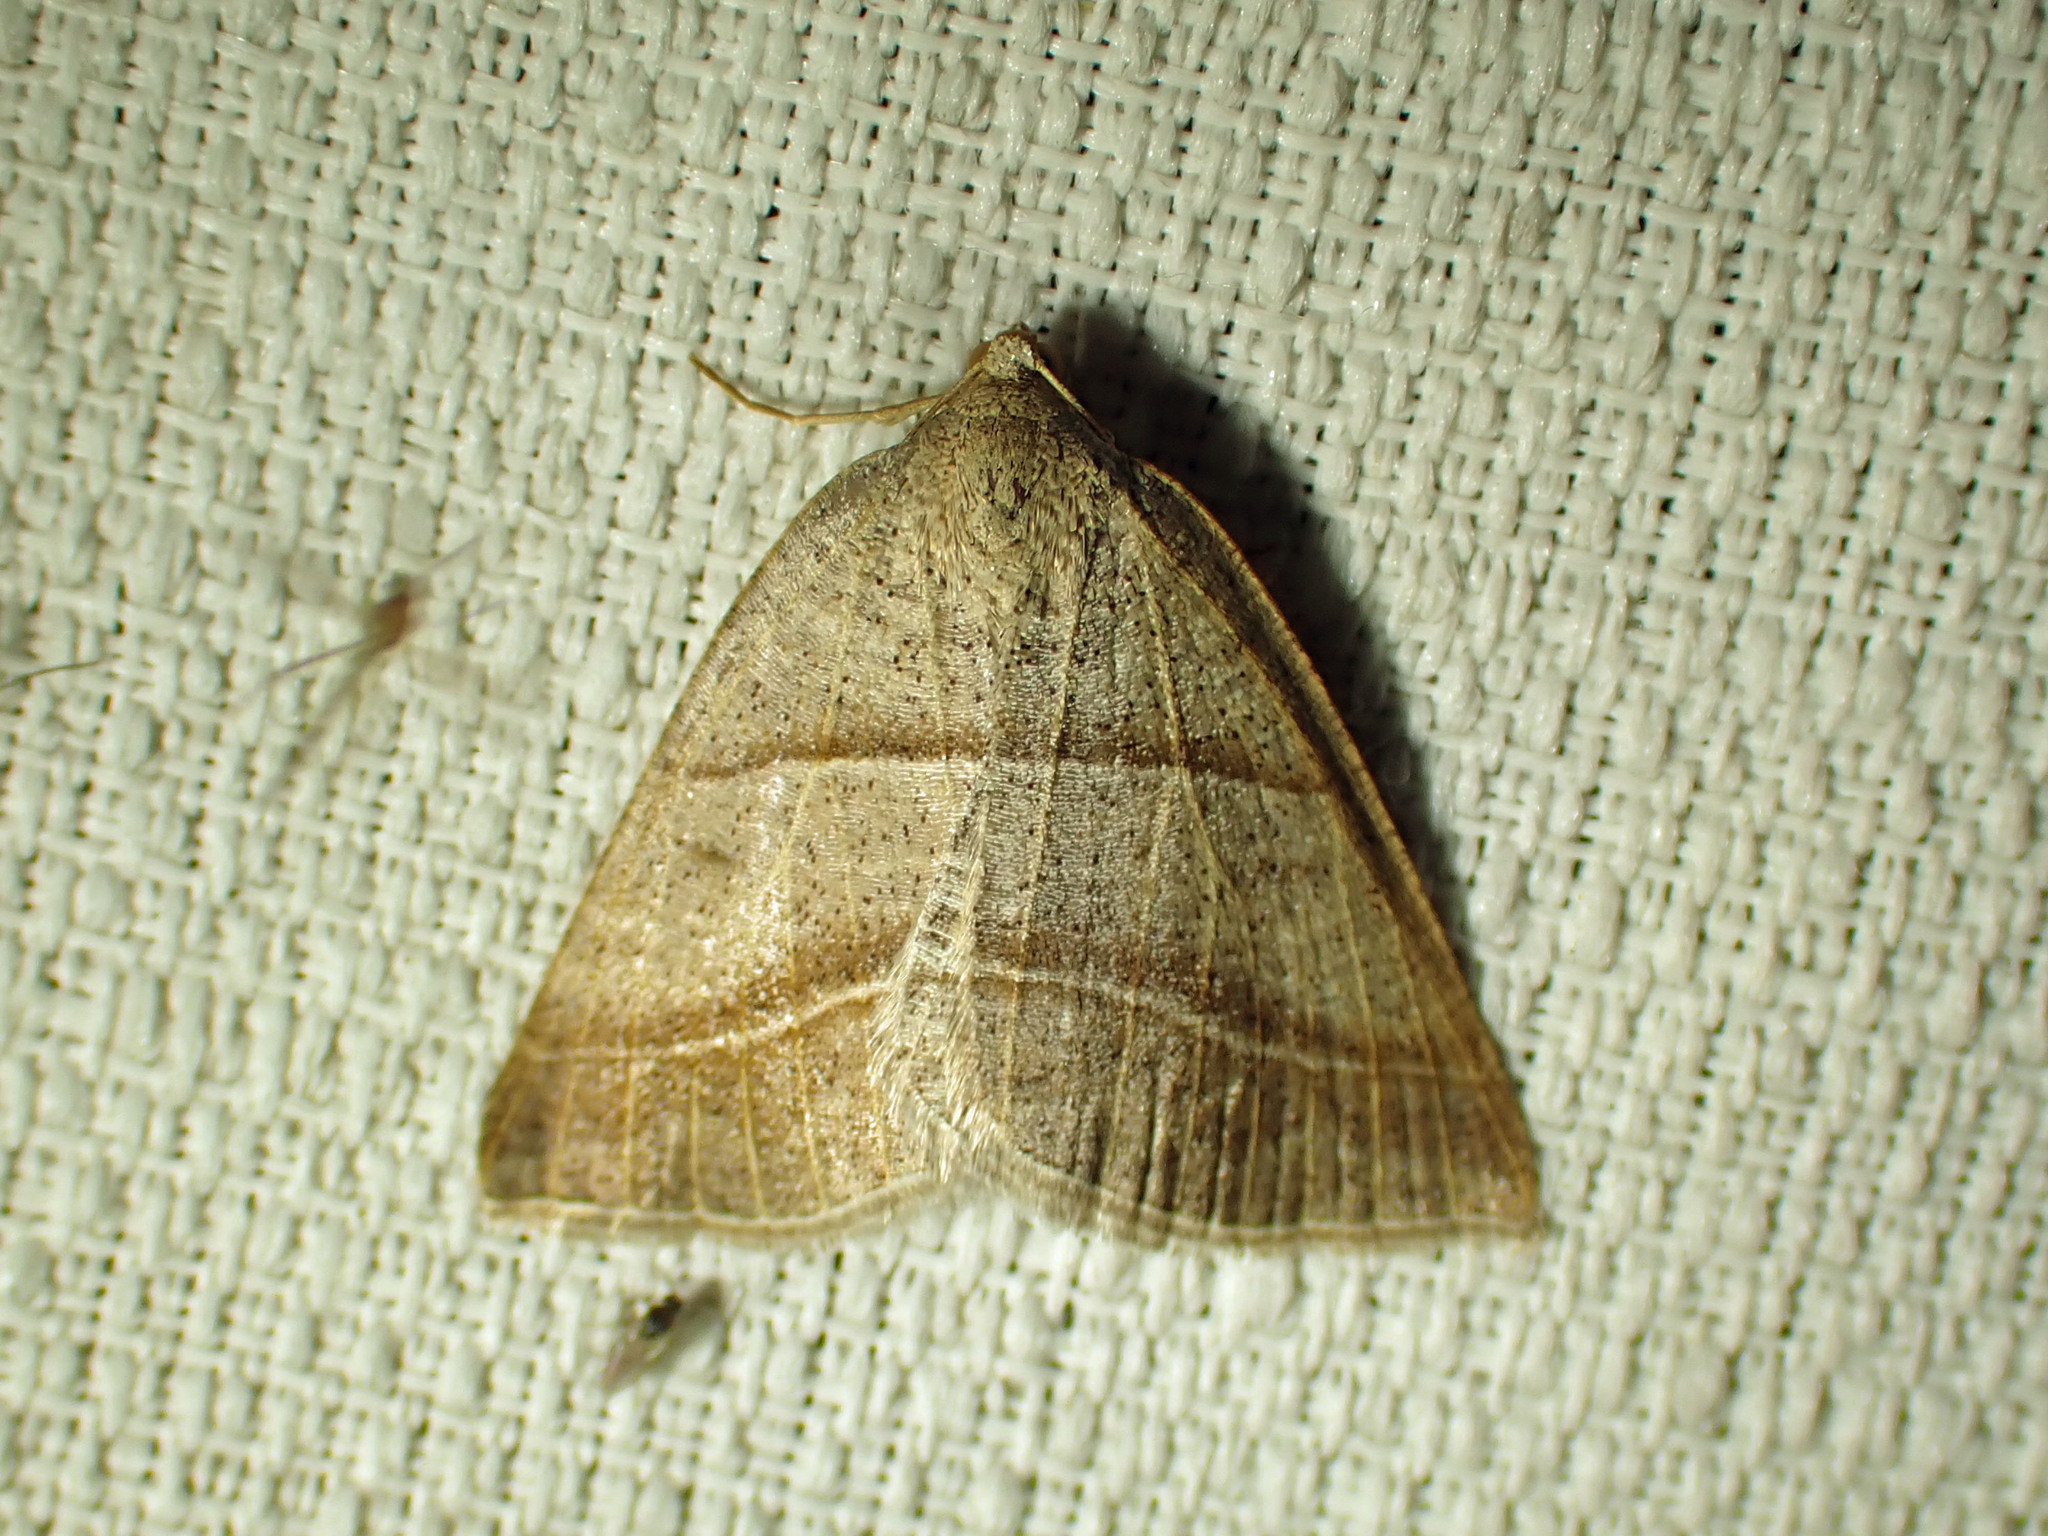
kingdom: Animalia
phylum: Arthropoda
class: Insecta
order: Lepidoptera
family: Pterophoridae
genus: Pterophorus
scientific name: Pterophorus Petrophora subaequaria
